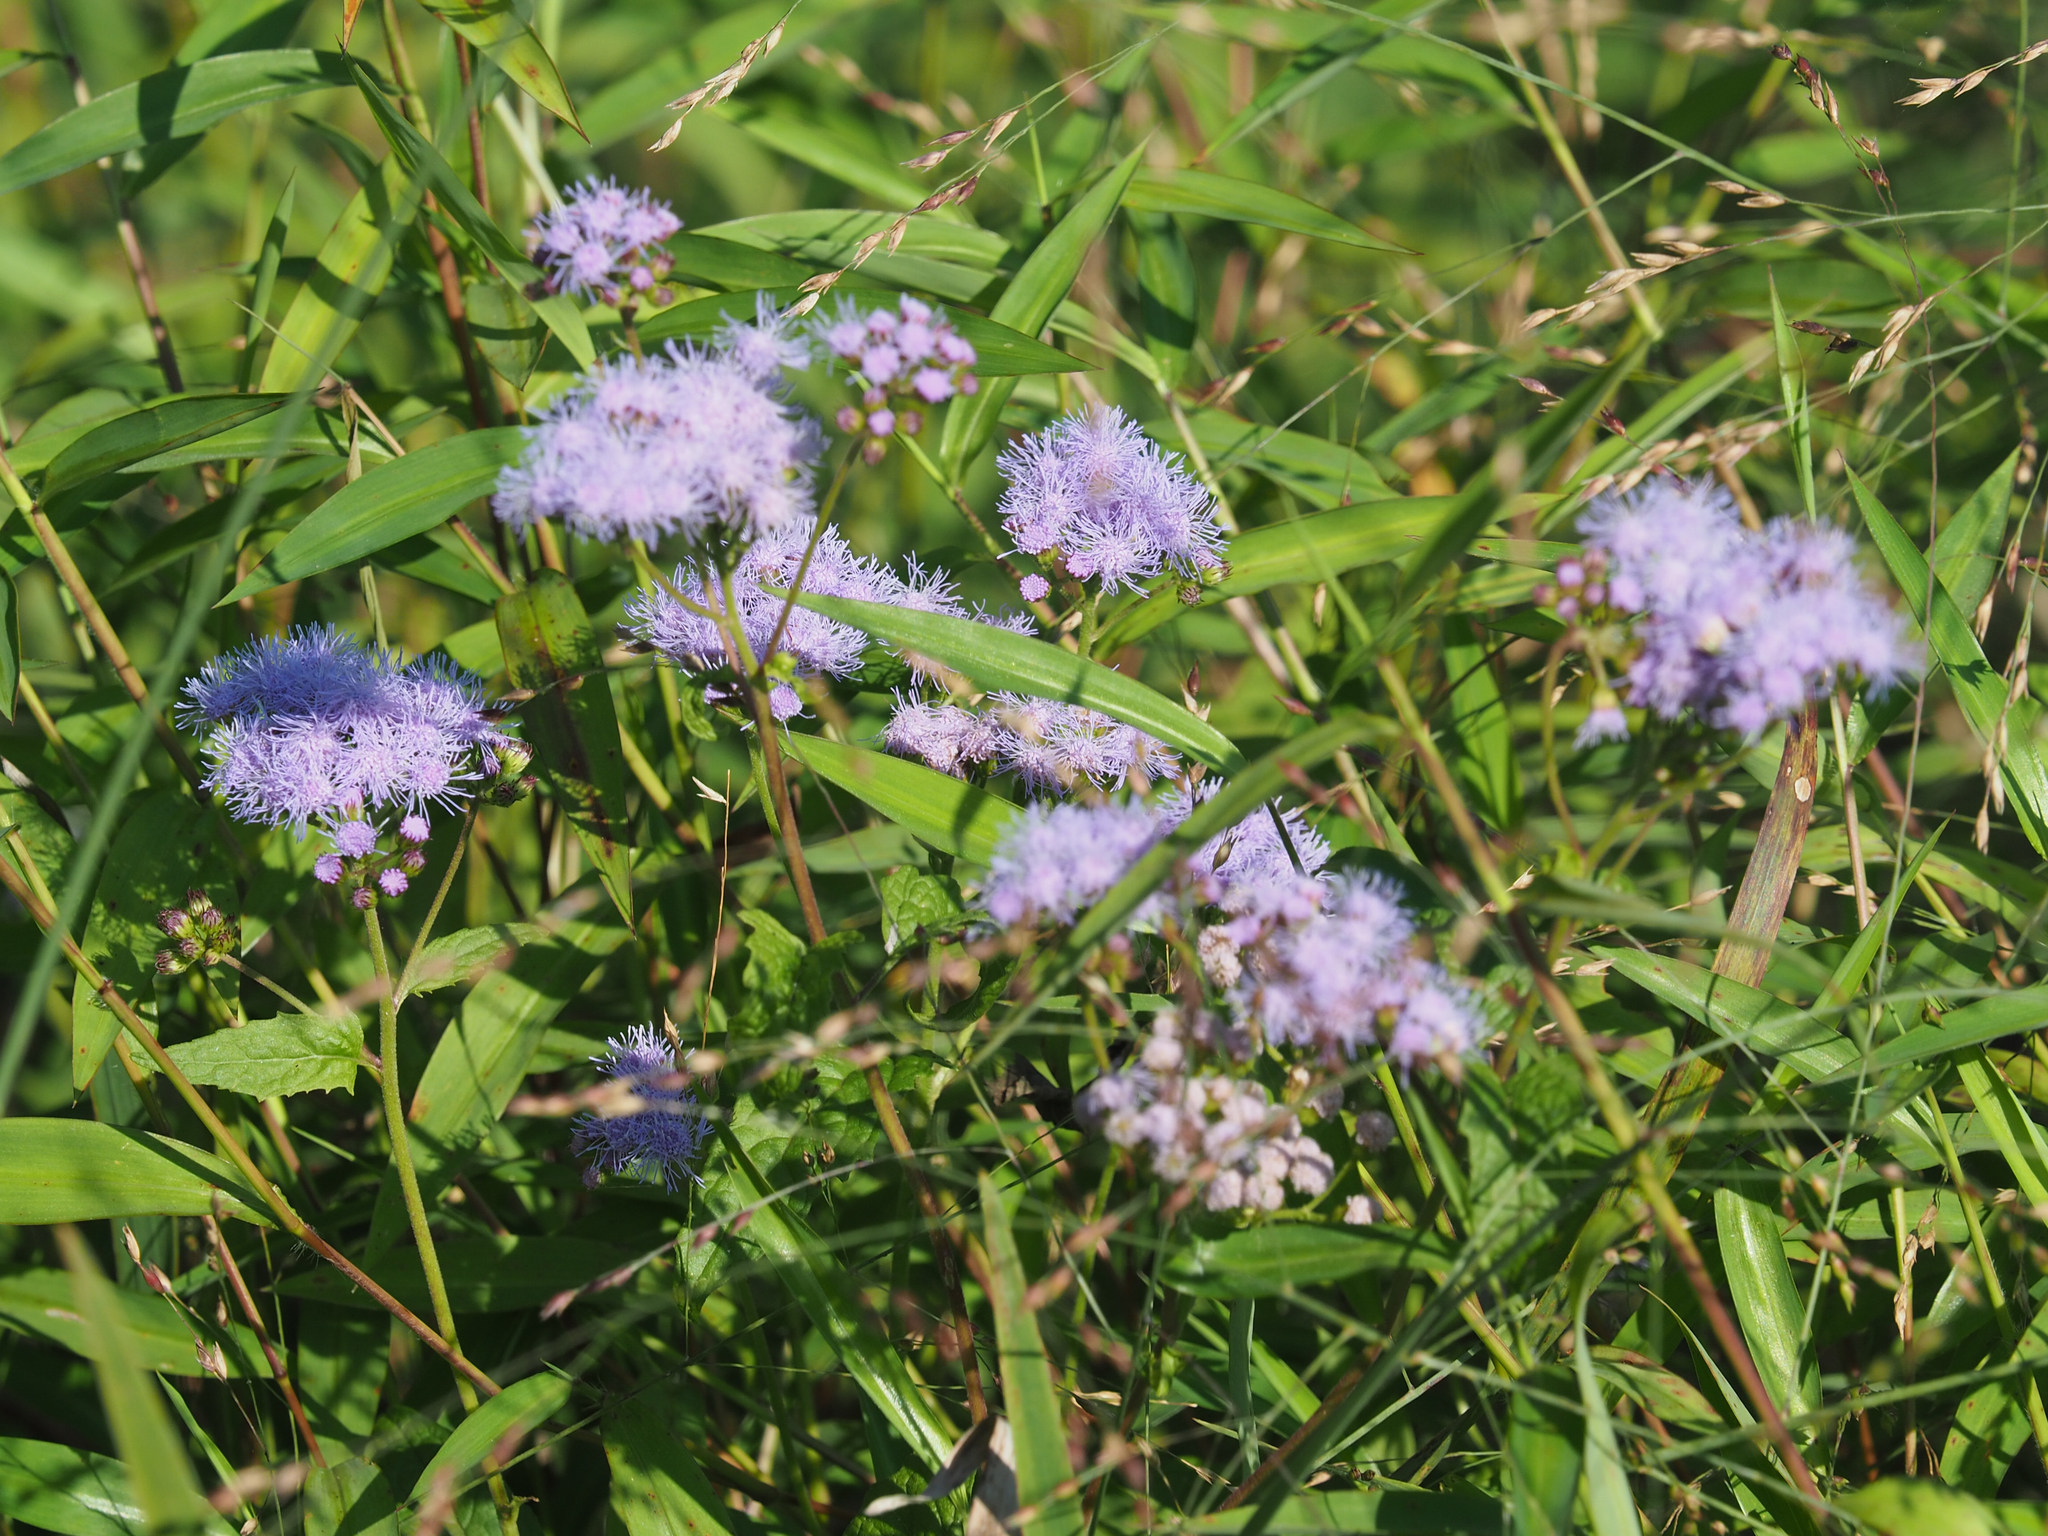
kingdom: Plantae
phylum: Tracheophyta
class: Magnoliopsida
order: Asterales
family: Asteraceae
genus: Conoclinium
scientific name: Conoclinium coelestinum
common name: Blue mistflower
